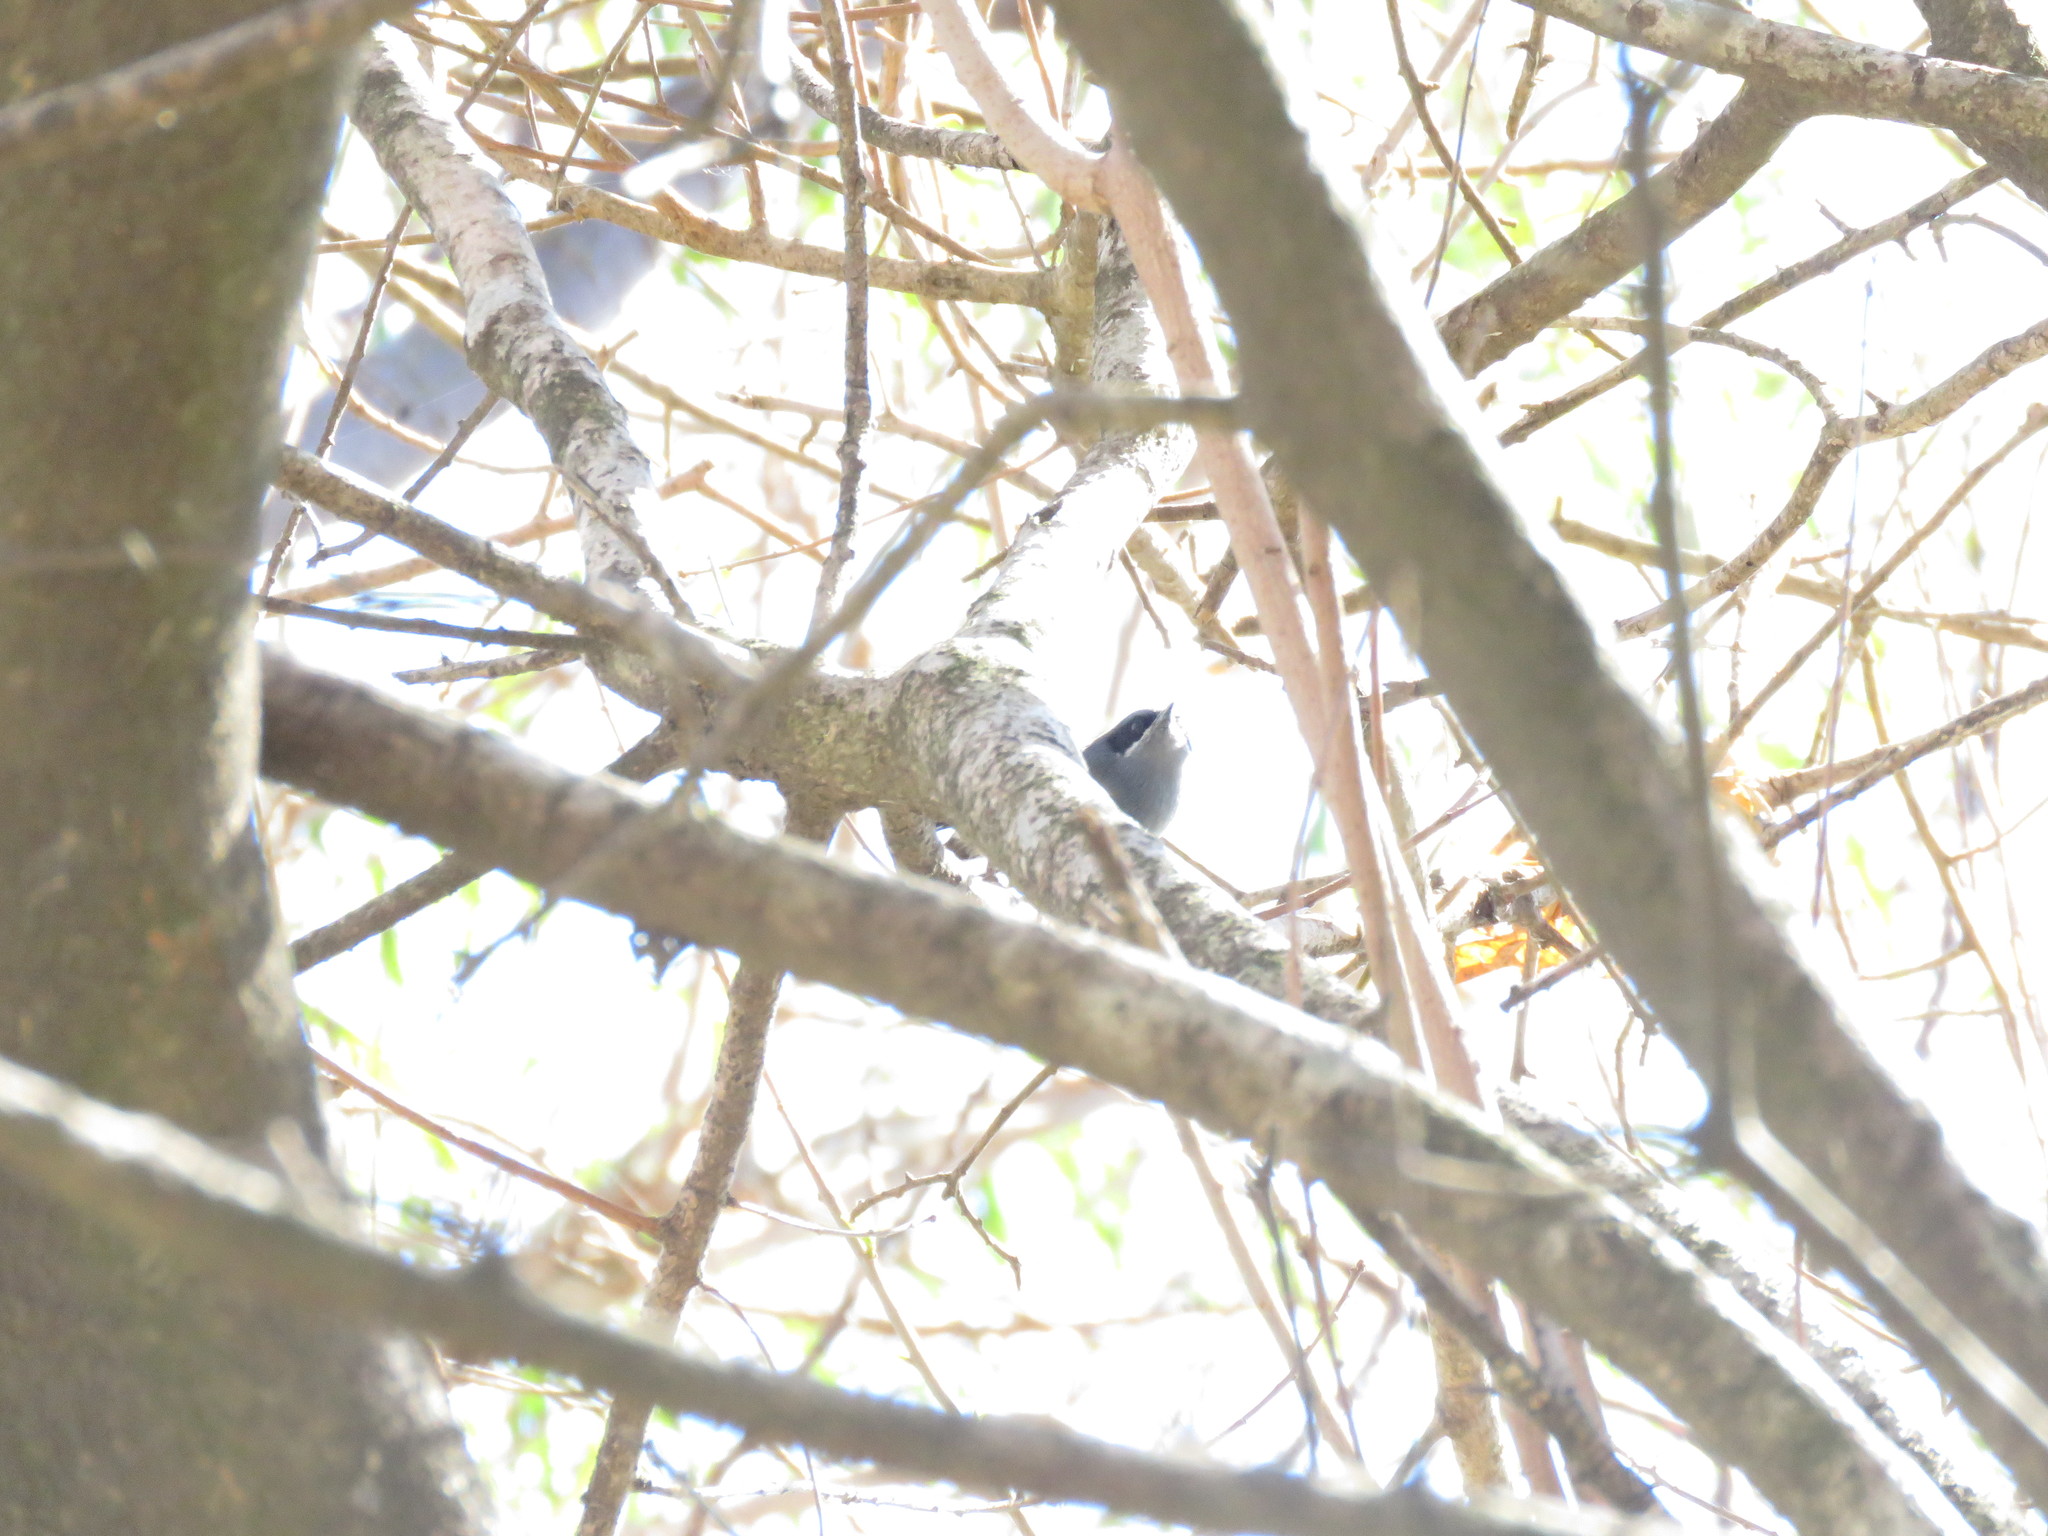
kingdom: Animalia
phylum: Chordata
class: Aves
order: Passeriformes
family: Polioptilidae
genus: Polioptila
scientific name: Polioptila dumicola
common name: Masked gnatcatcher
